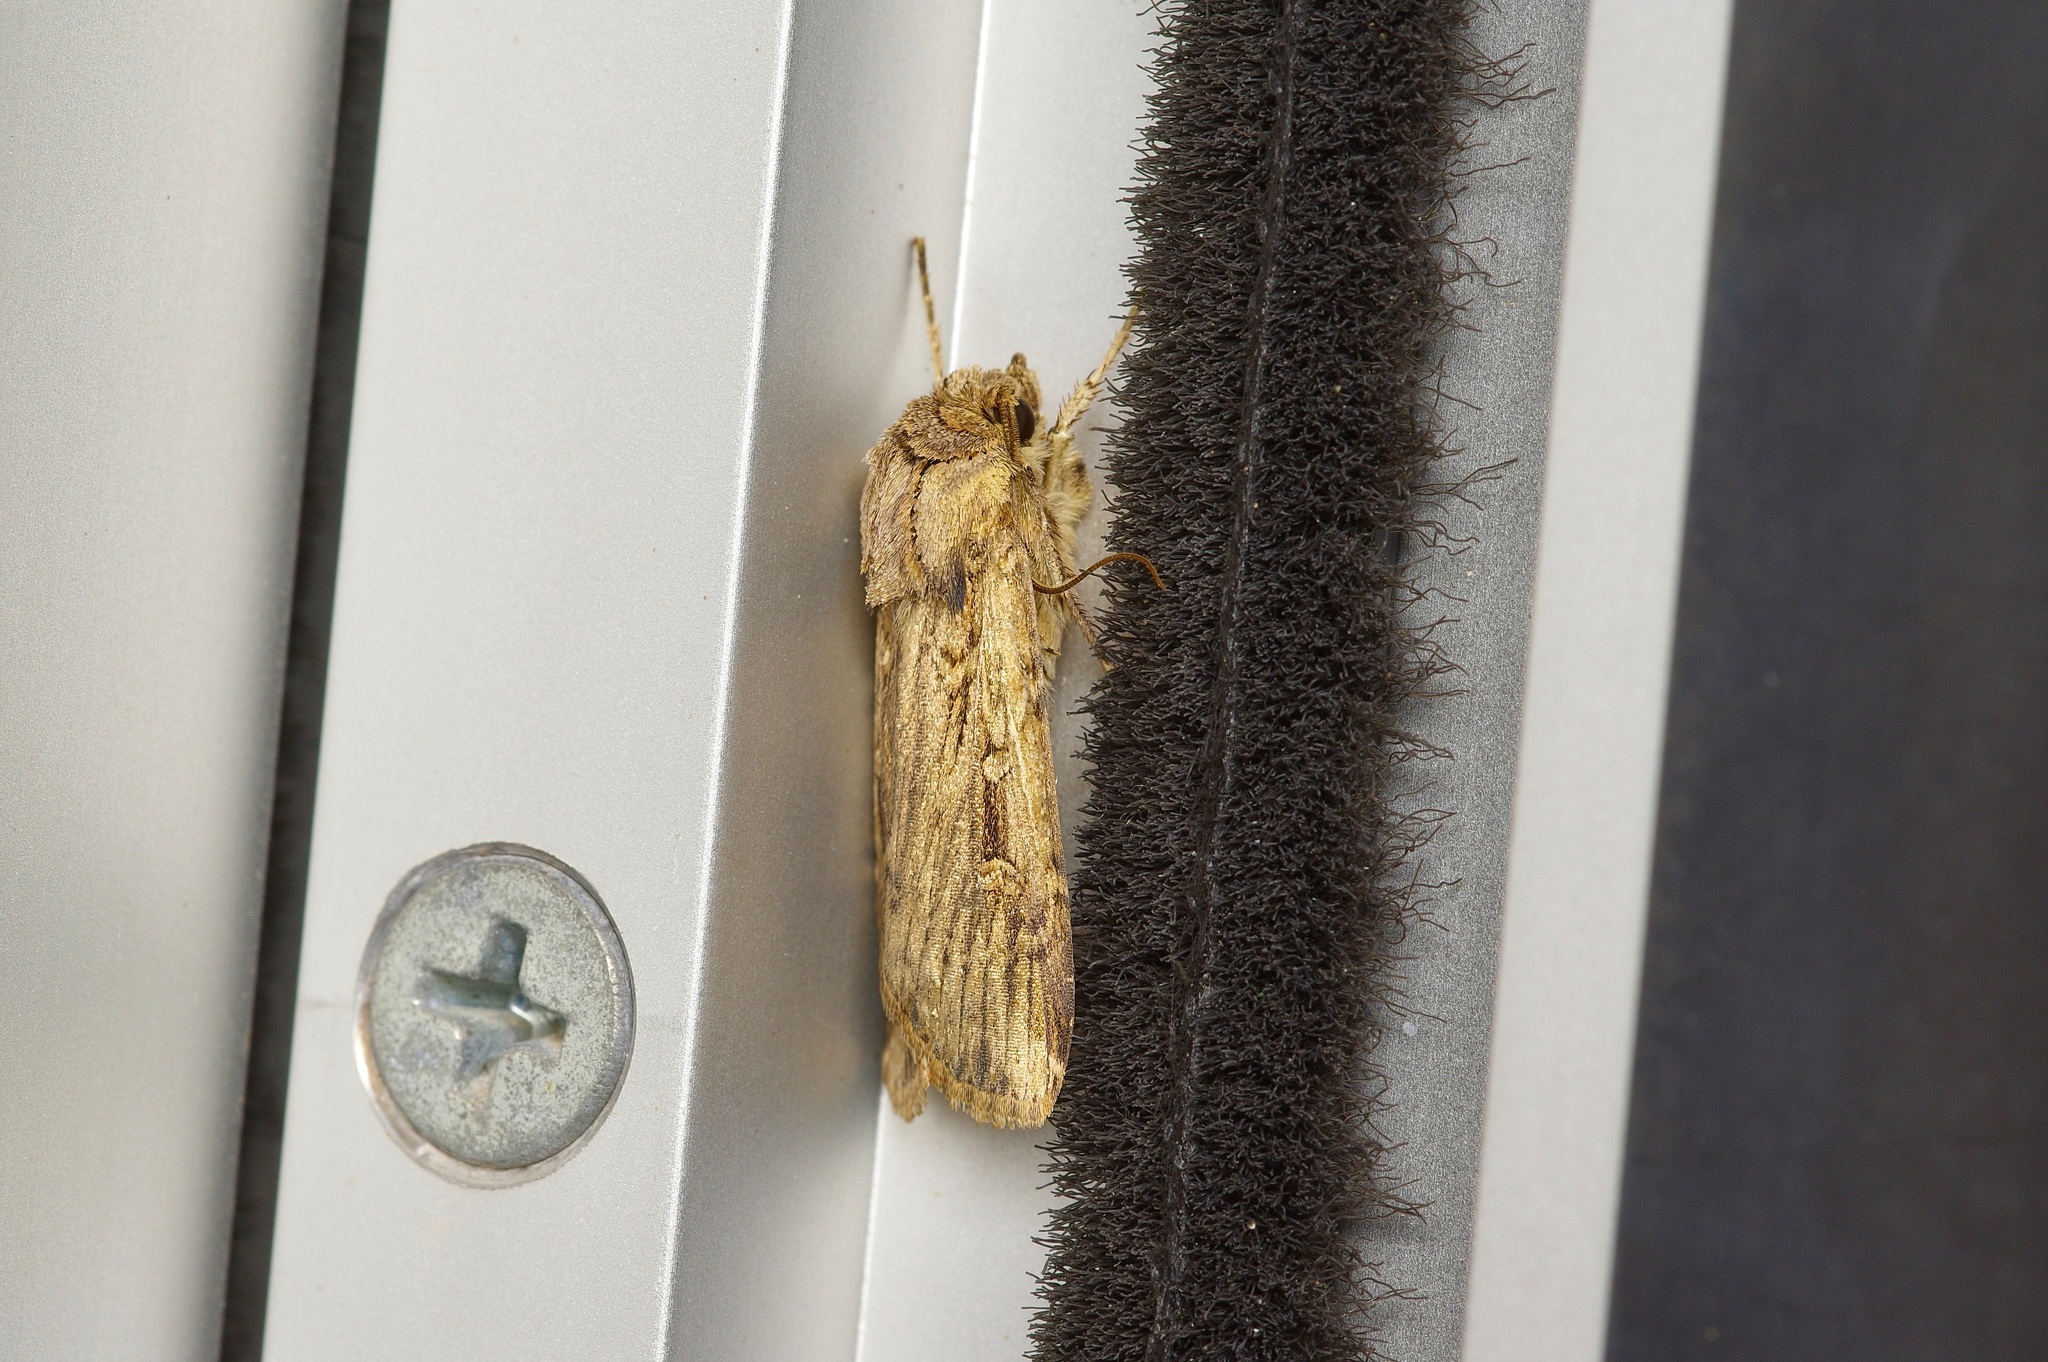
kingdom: Animalia
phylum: Arthropoda
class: Insecta
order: Lepidoptera
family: Noctuidae
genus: Feltia
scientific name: Feltia subterranea
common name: Granulate cutworm
